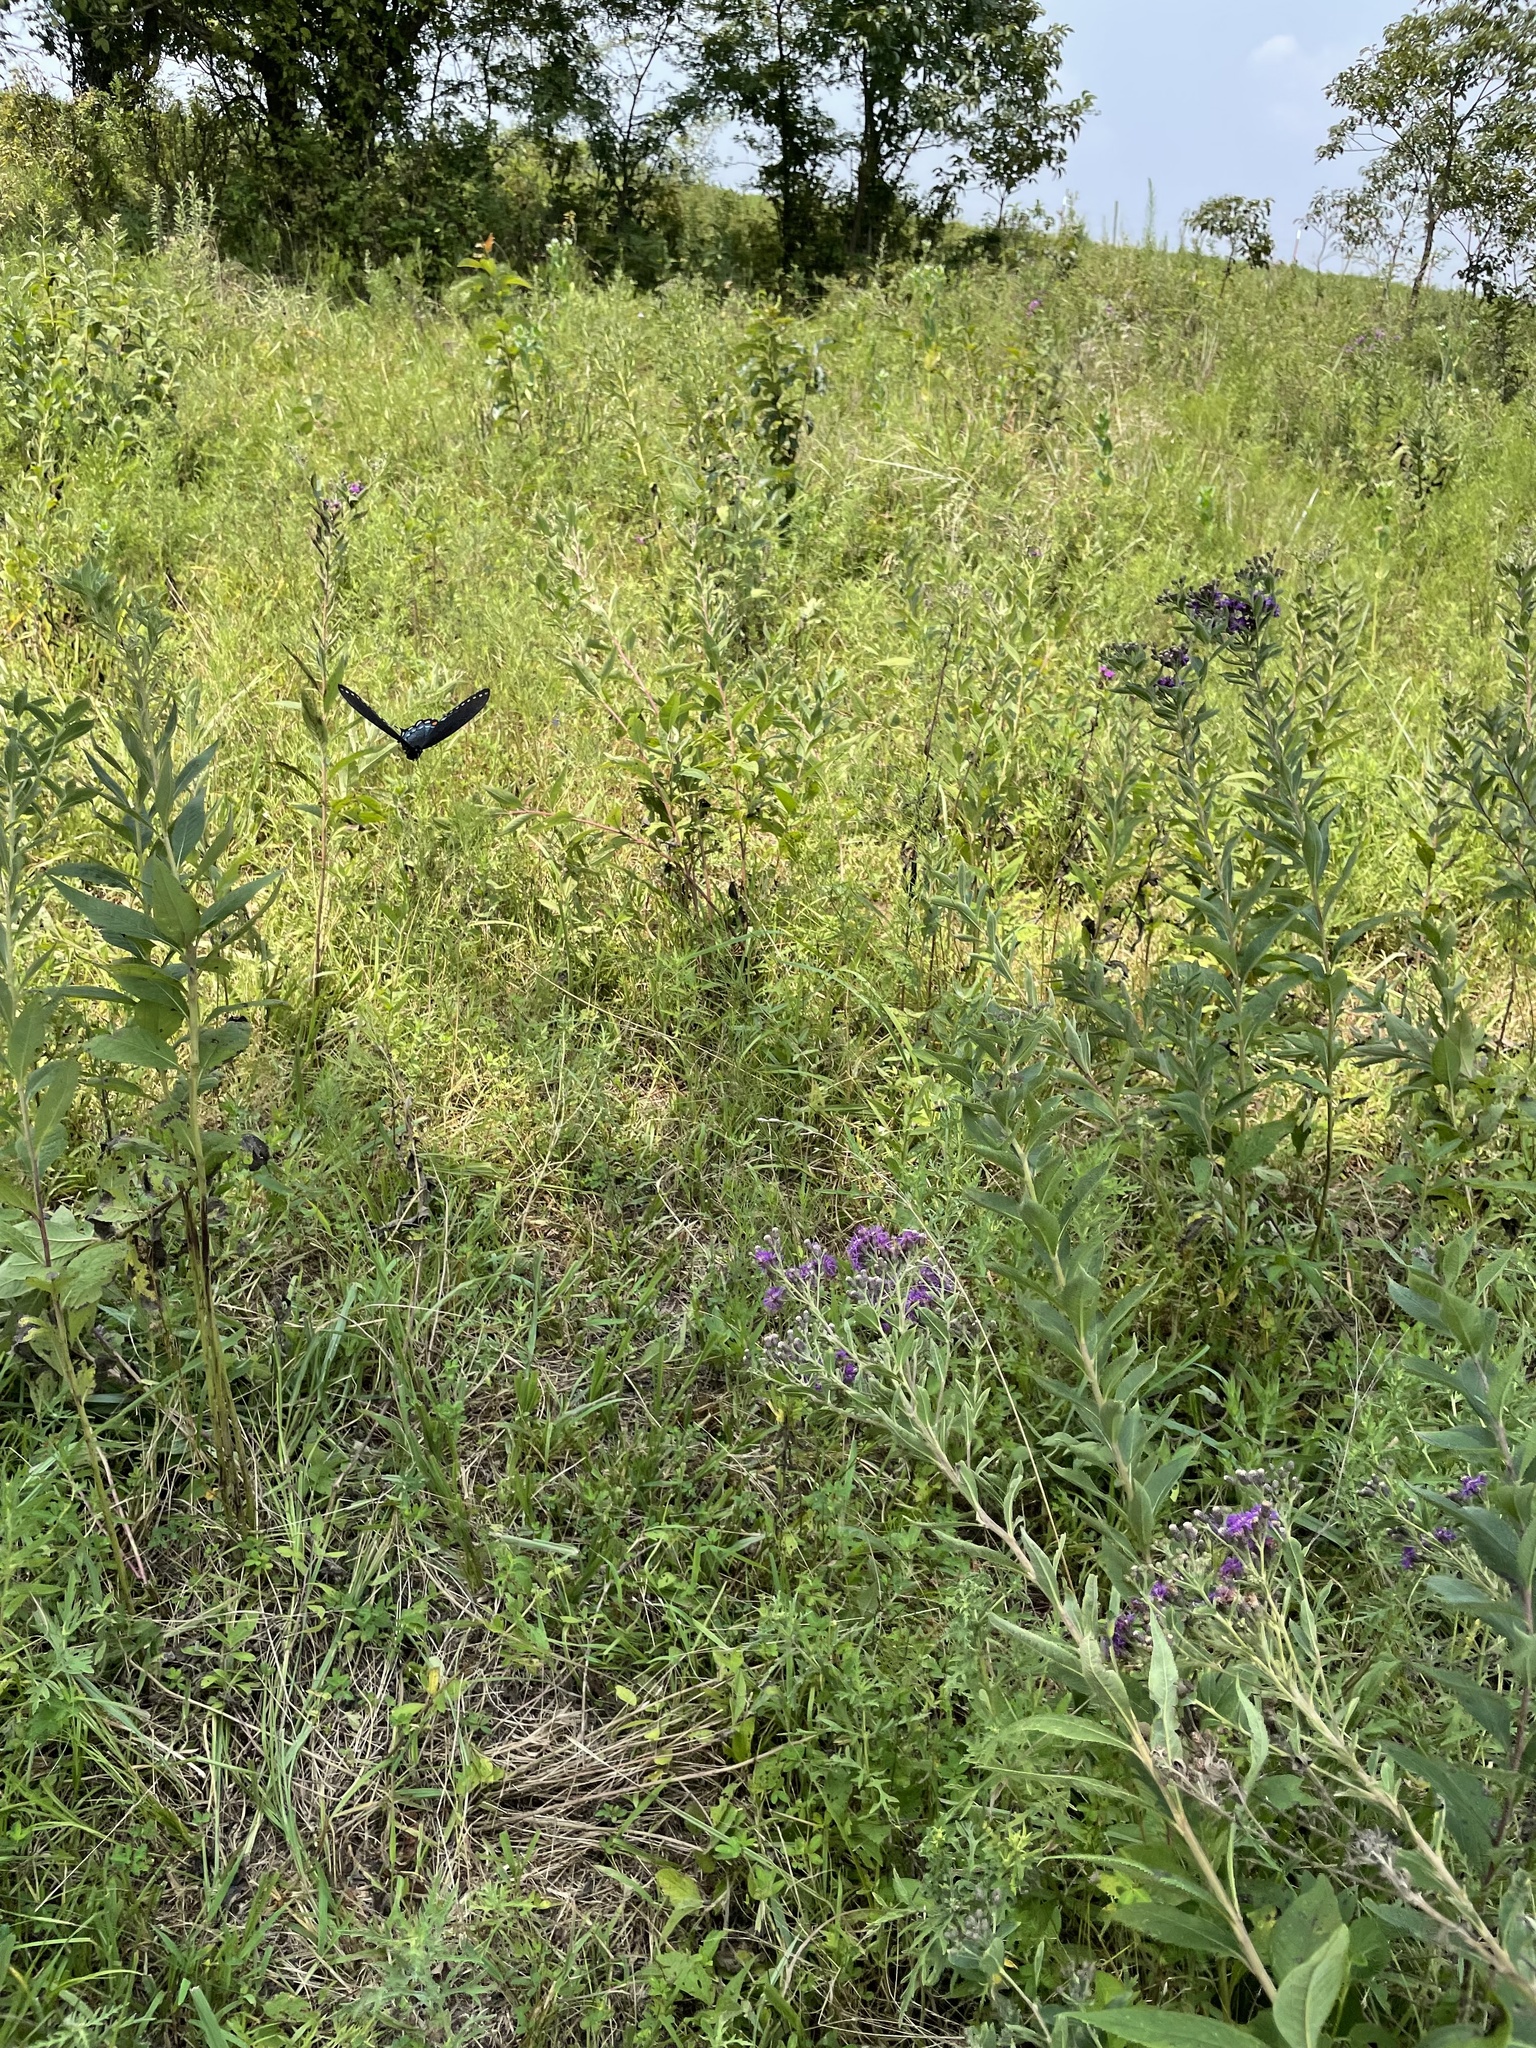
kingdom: Animalia
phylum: Arthropoda
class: Insecta
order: Lepidoptera
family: Papilionidae
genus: Papilio
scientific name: Papilio glaucus
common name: Tiger swallowtail
